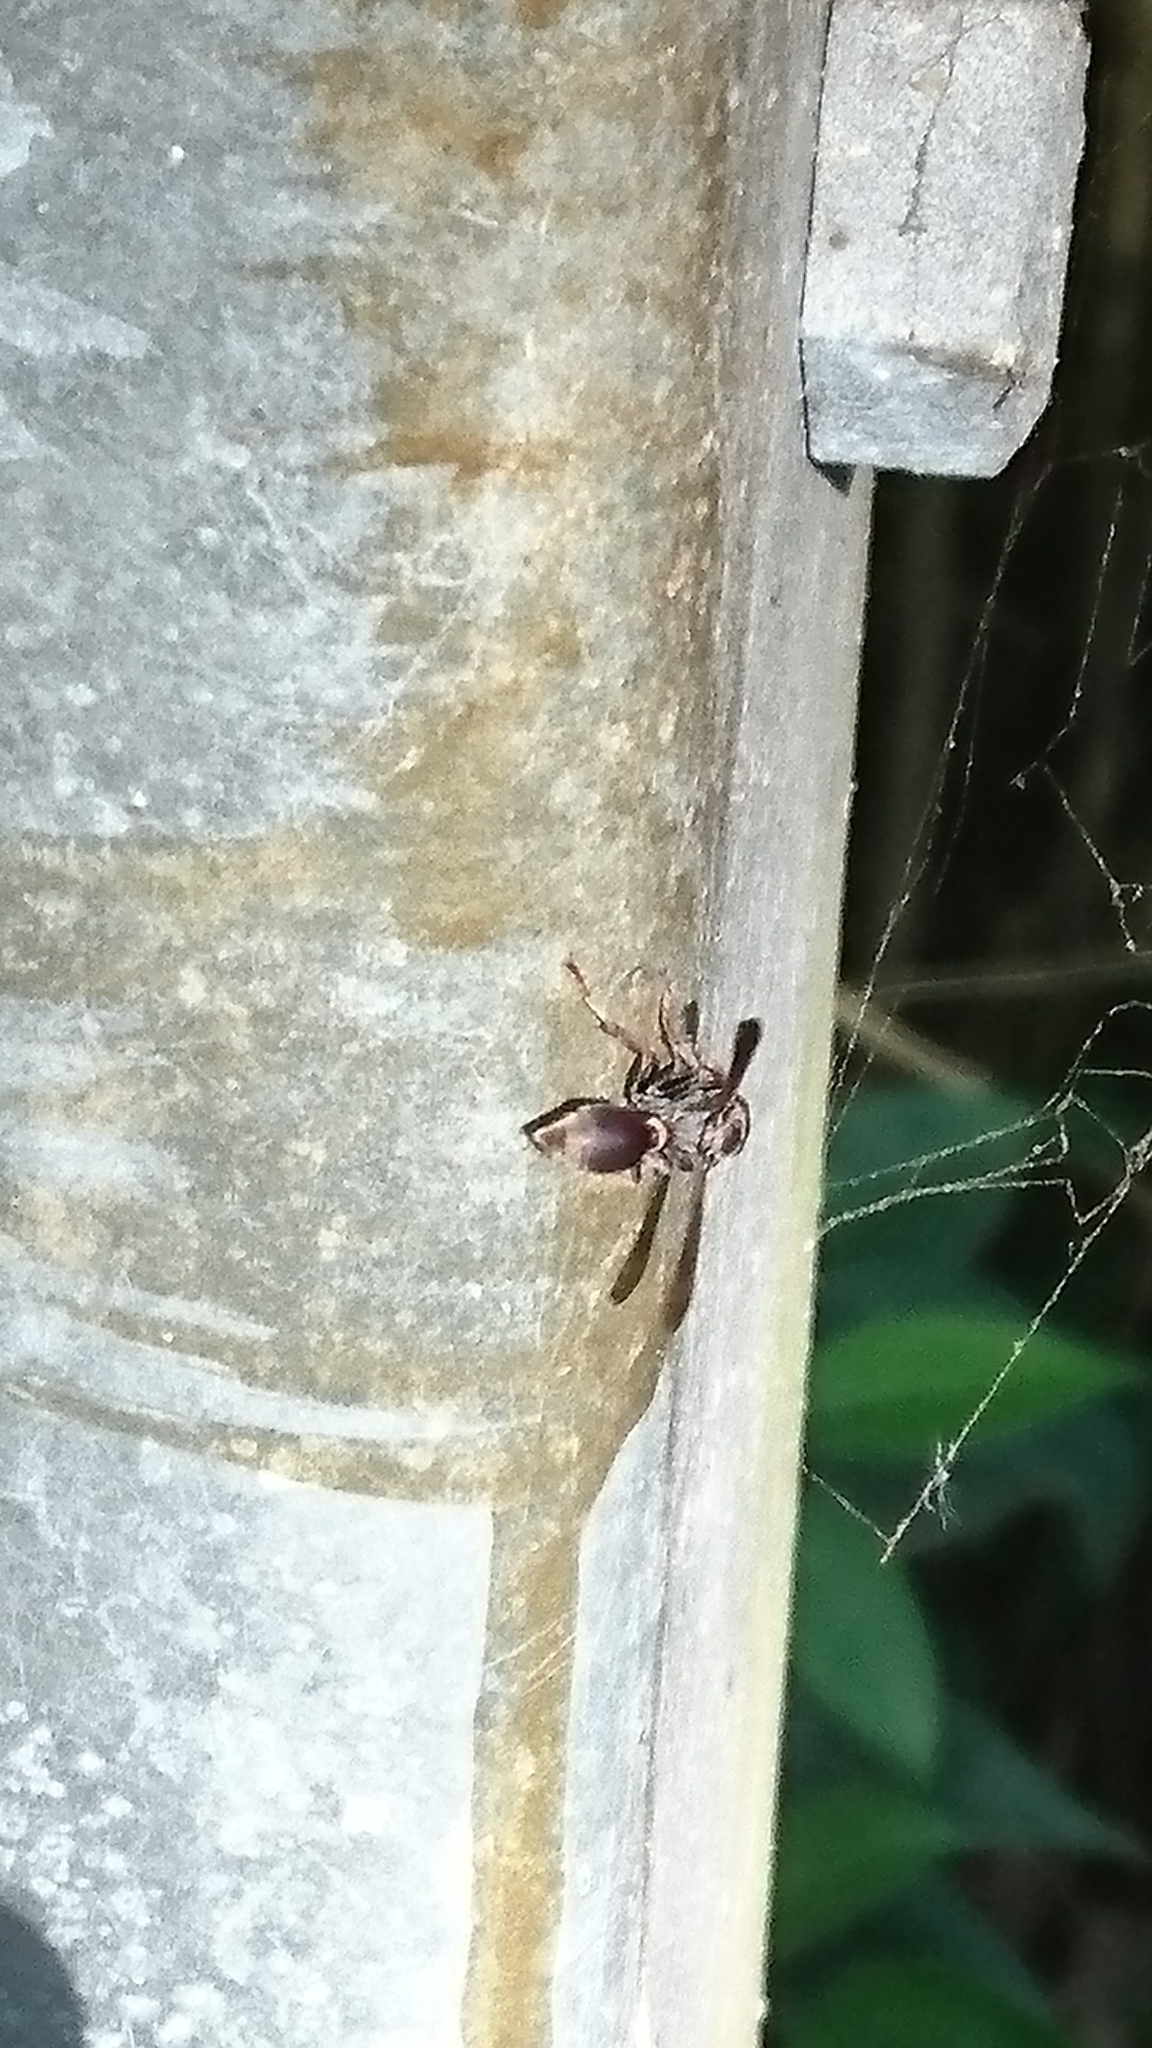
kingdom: Animalia
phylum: Arthropoda
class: Insecta
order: Hymenoptera
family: Vespidae
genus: Ropalidia
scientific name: Ropalidia
